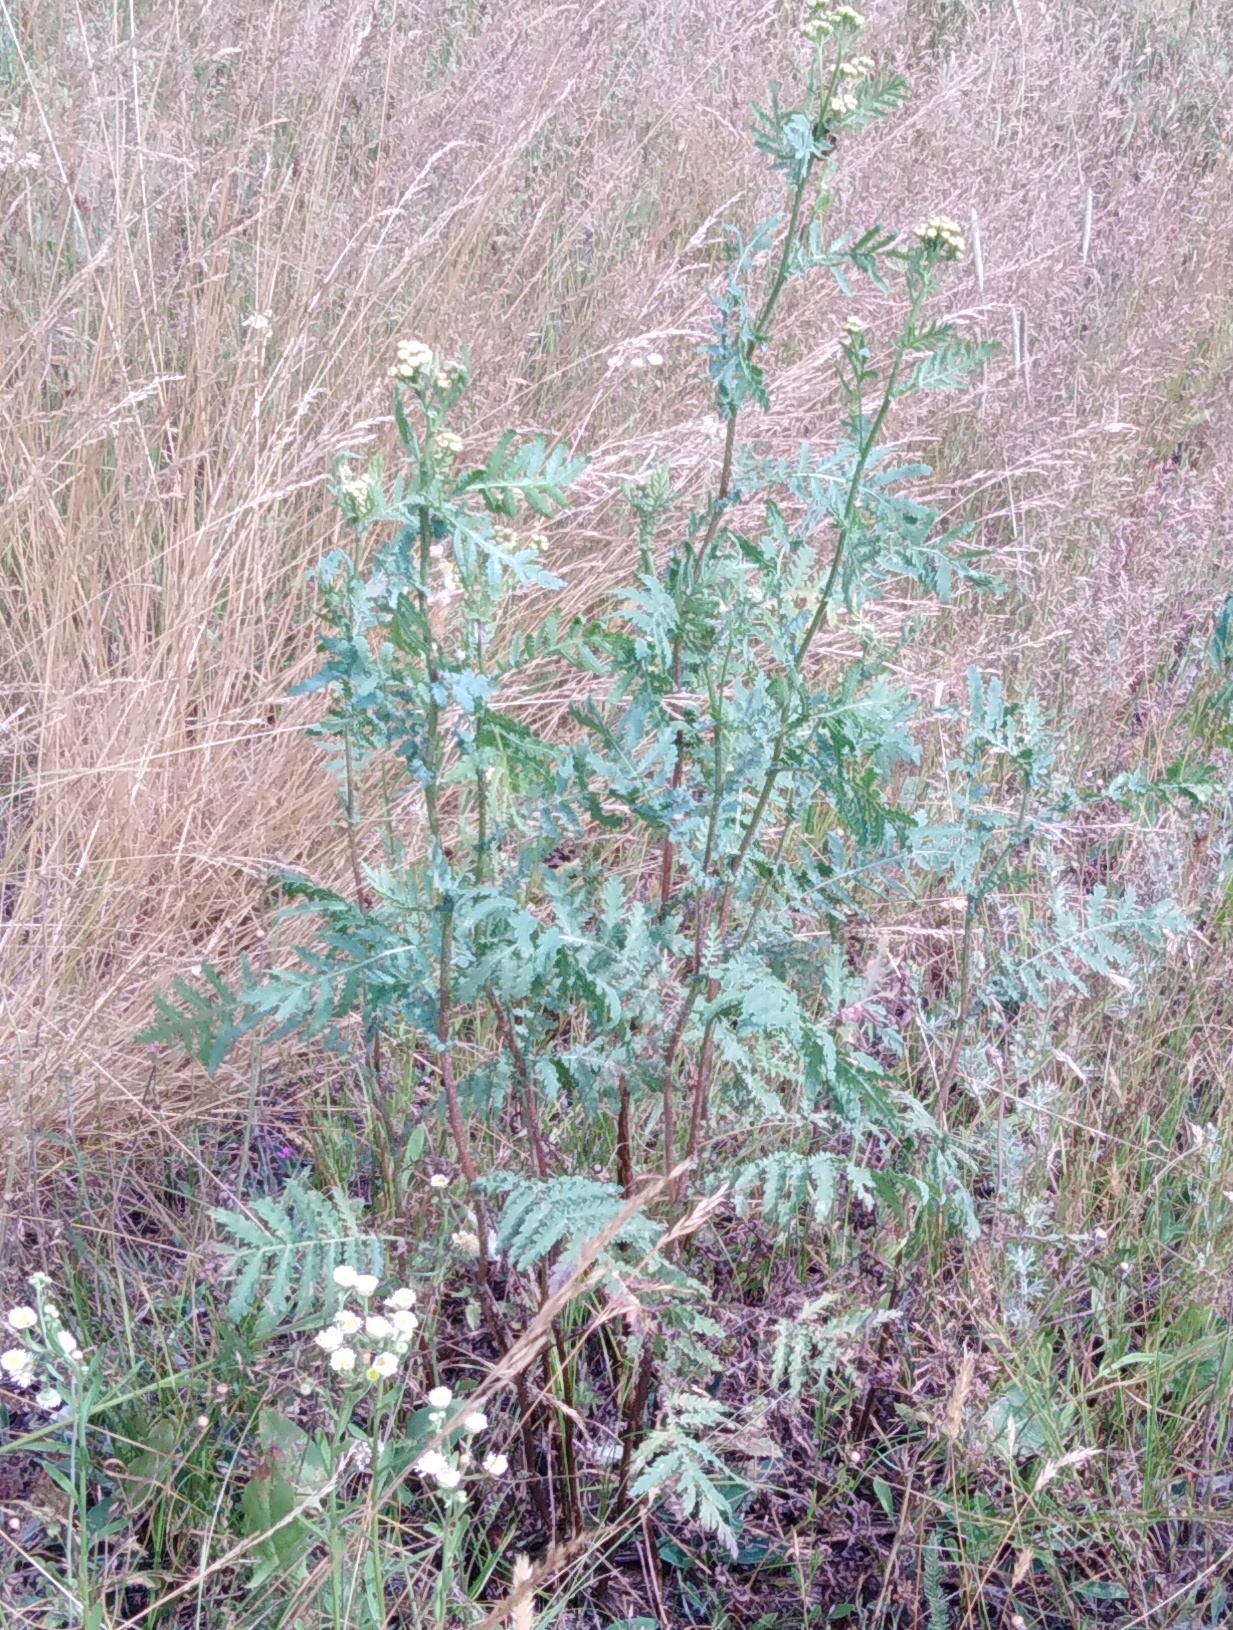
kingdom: Plantae
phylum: Tracheophyta
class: Magnoliopsida
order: Asterales
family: Asteraceae
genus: Tanacetum
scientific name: Tanacetum vulgare
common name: Common tansy
